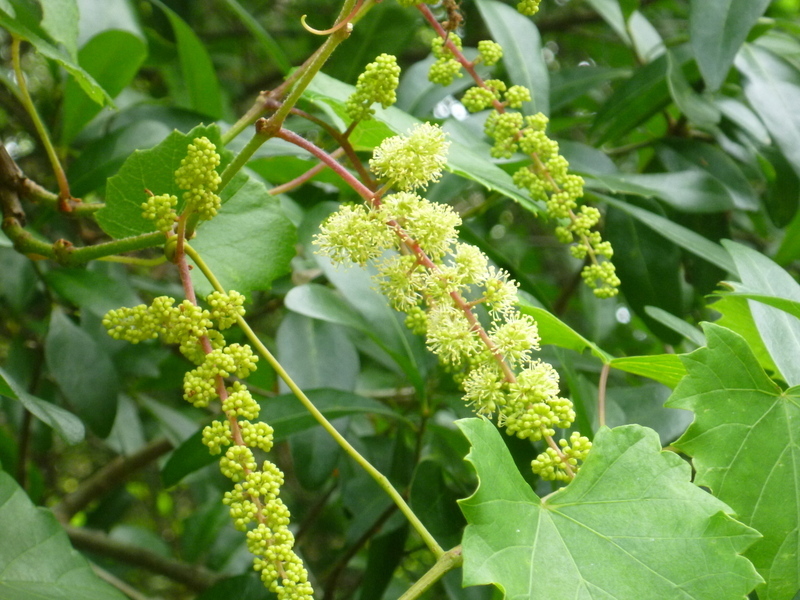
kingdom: Plantae
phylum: Tracheophyta
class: Magnoliopsida
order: Vitales
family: Vitaceae
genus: Vitis
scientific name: Vitis rotundifolia
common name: Muscadine grape
